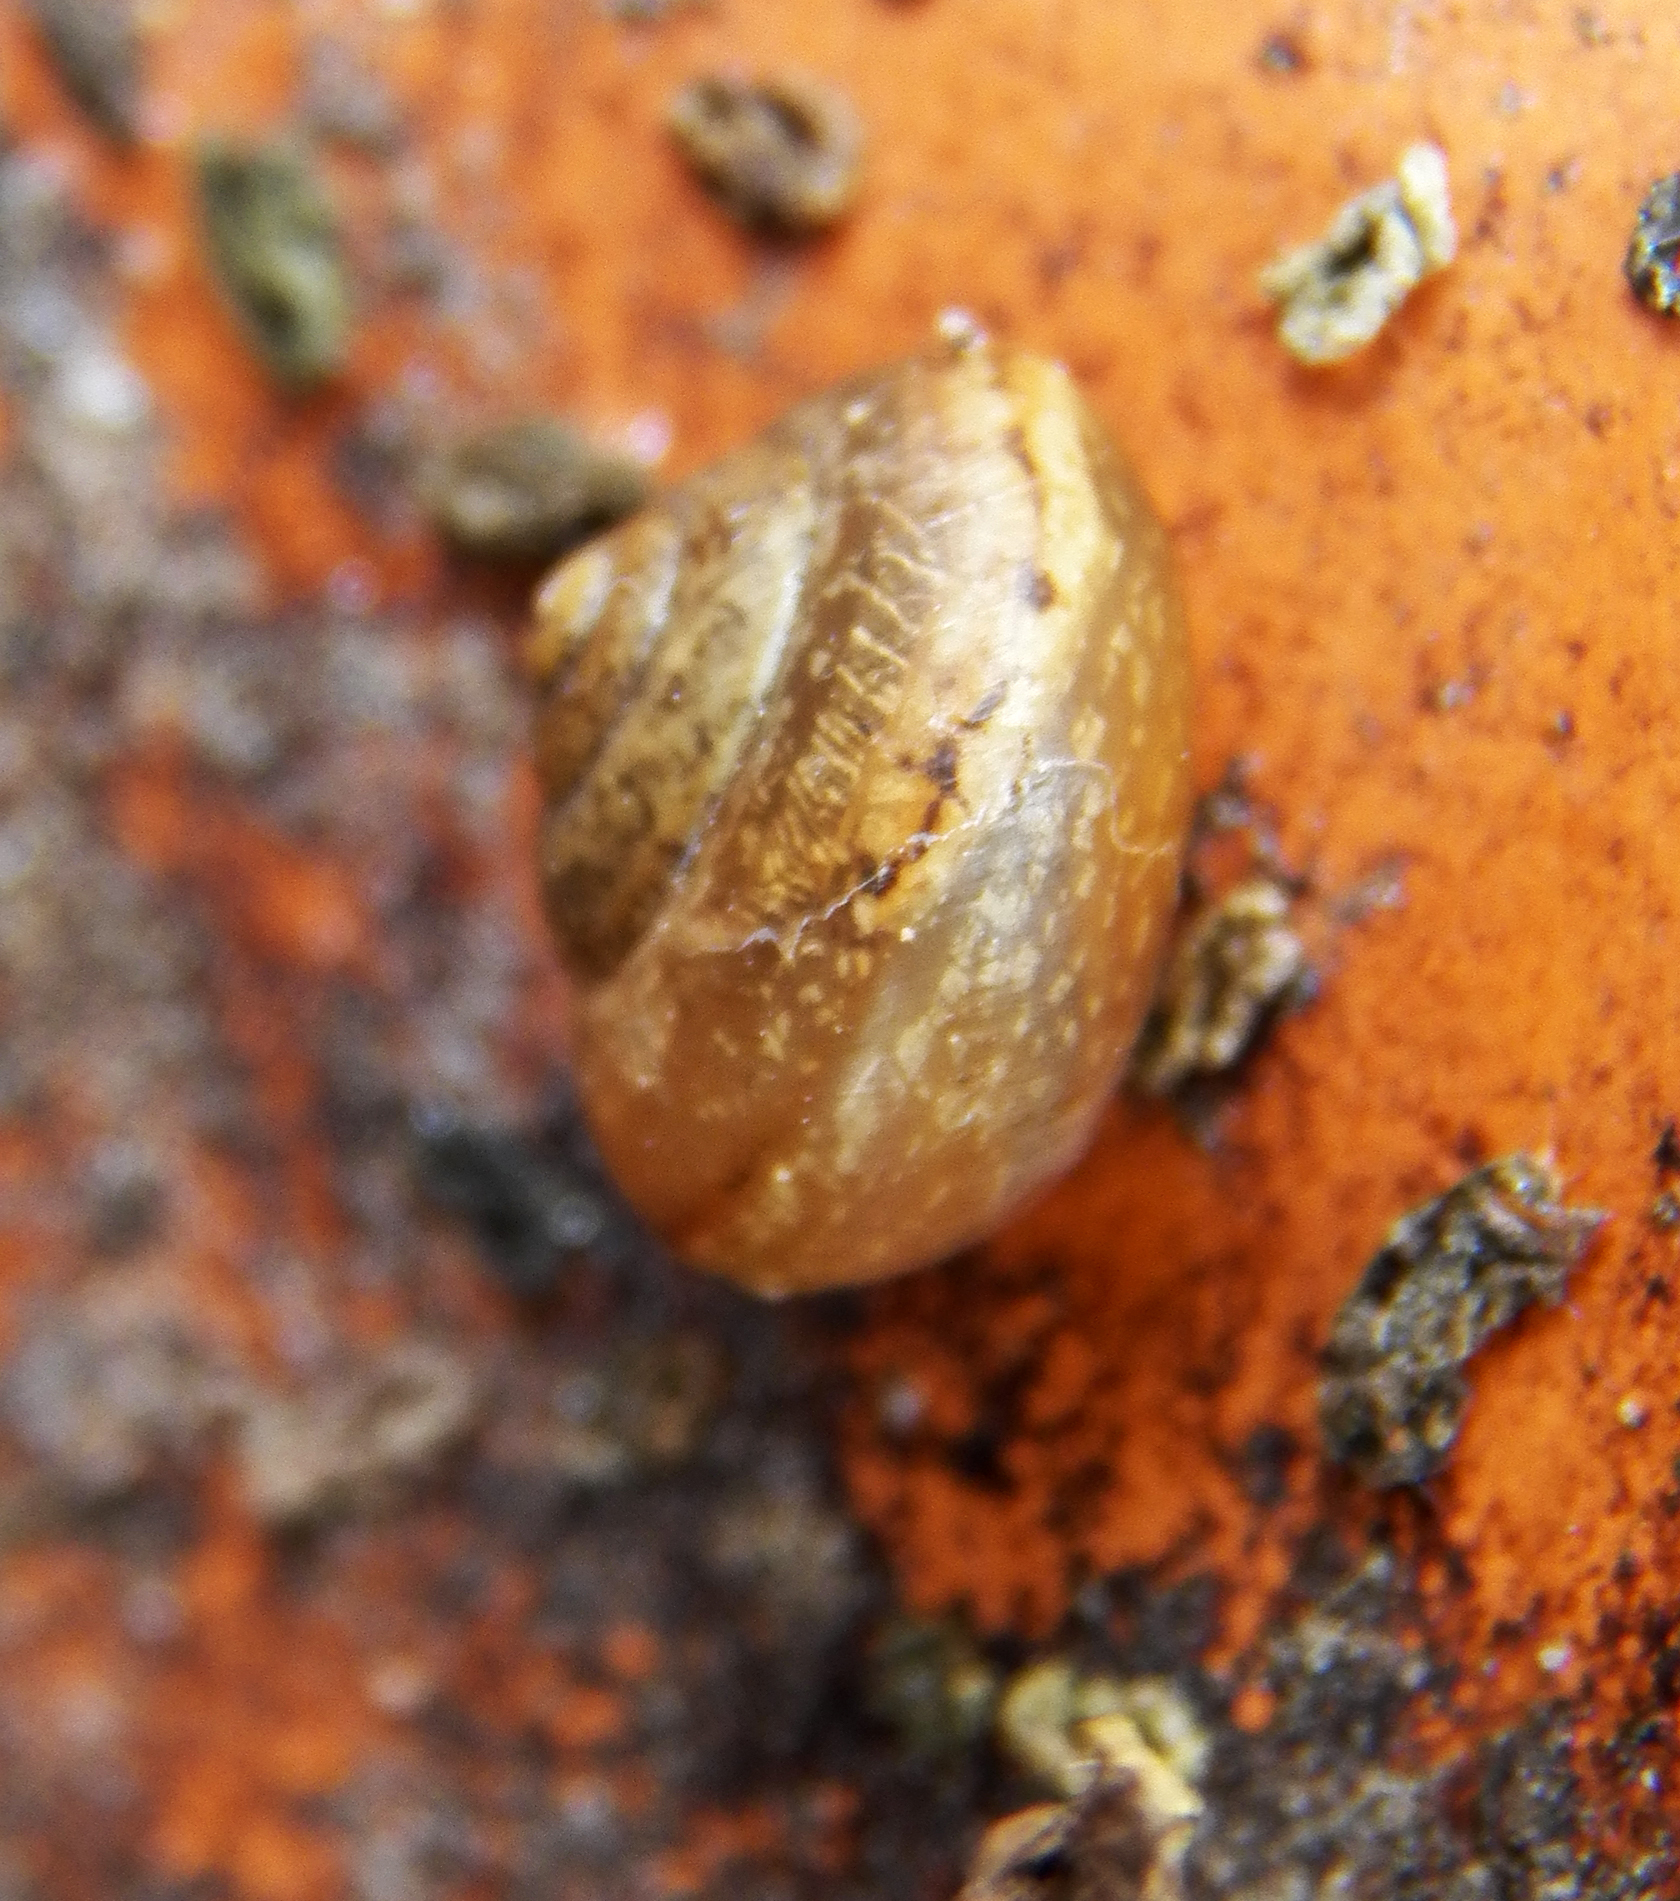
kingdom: Animalia
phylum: Mollusca
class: Gastropoda
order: Stylommatophora
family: Camaenidae
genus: Bradybaena
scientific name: Bradybaena similaris
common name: Asian trampsnail
